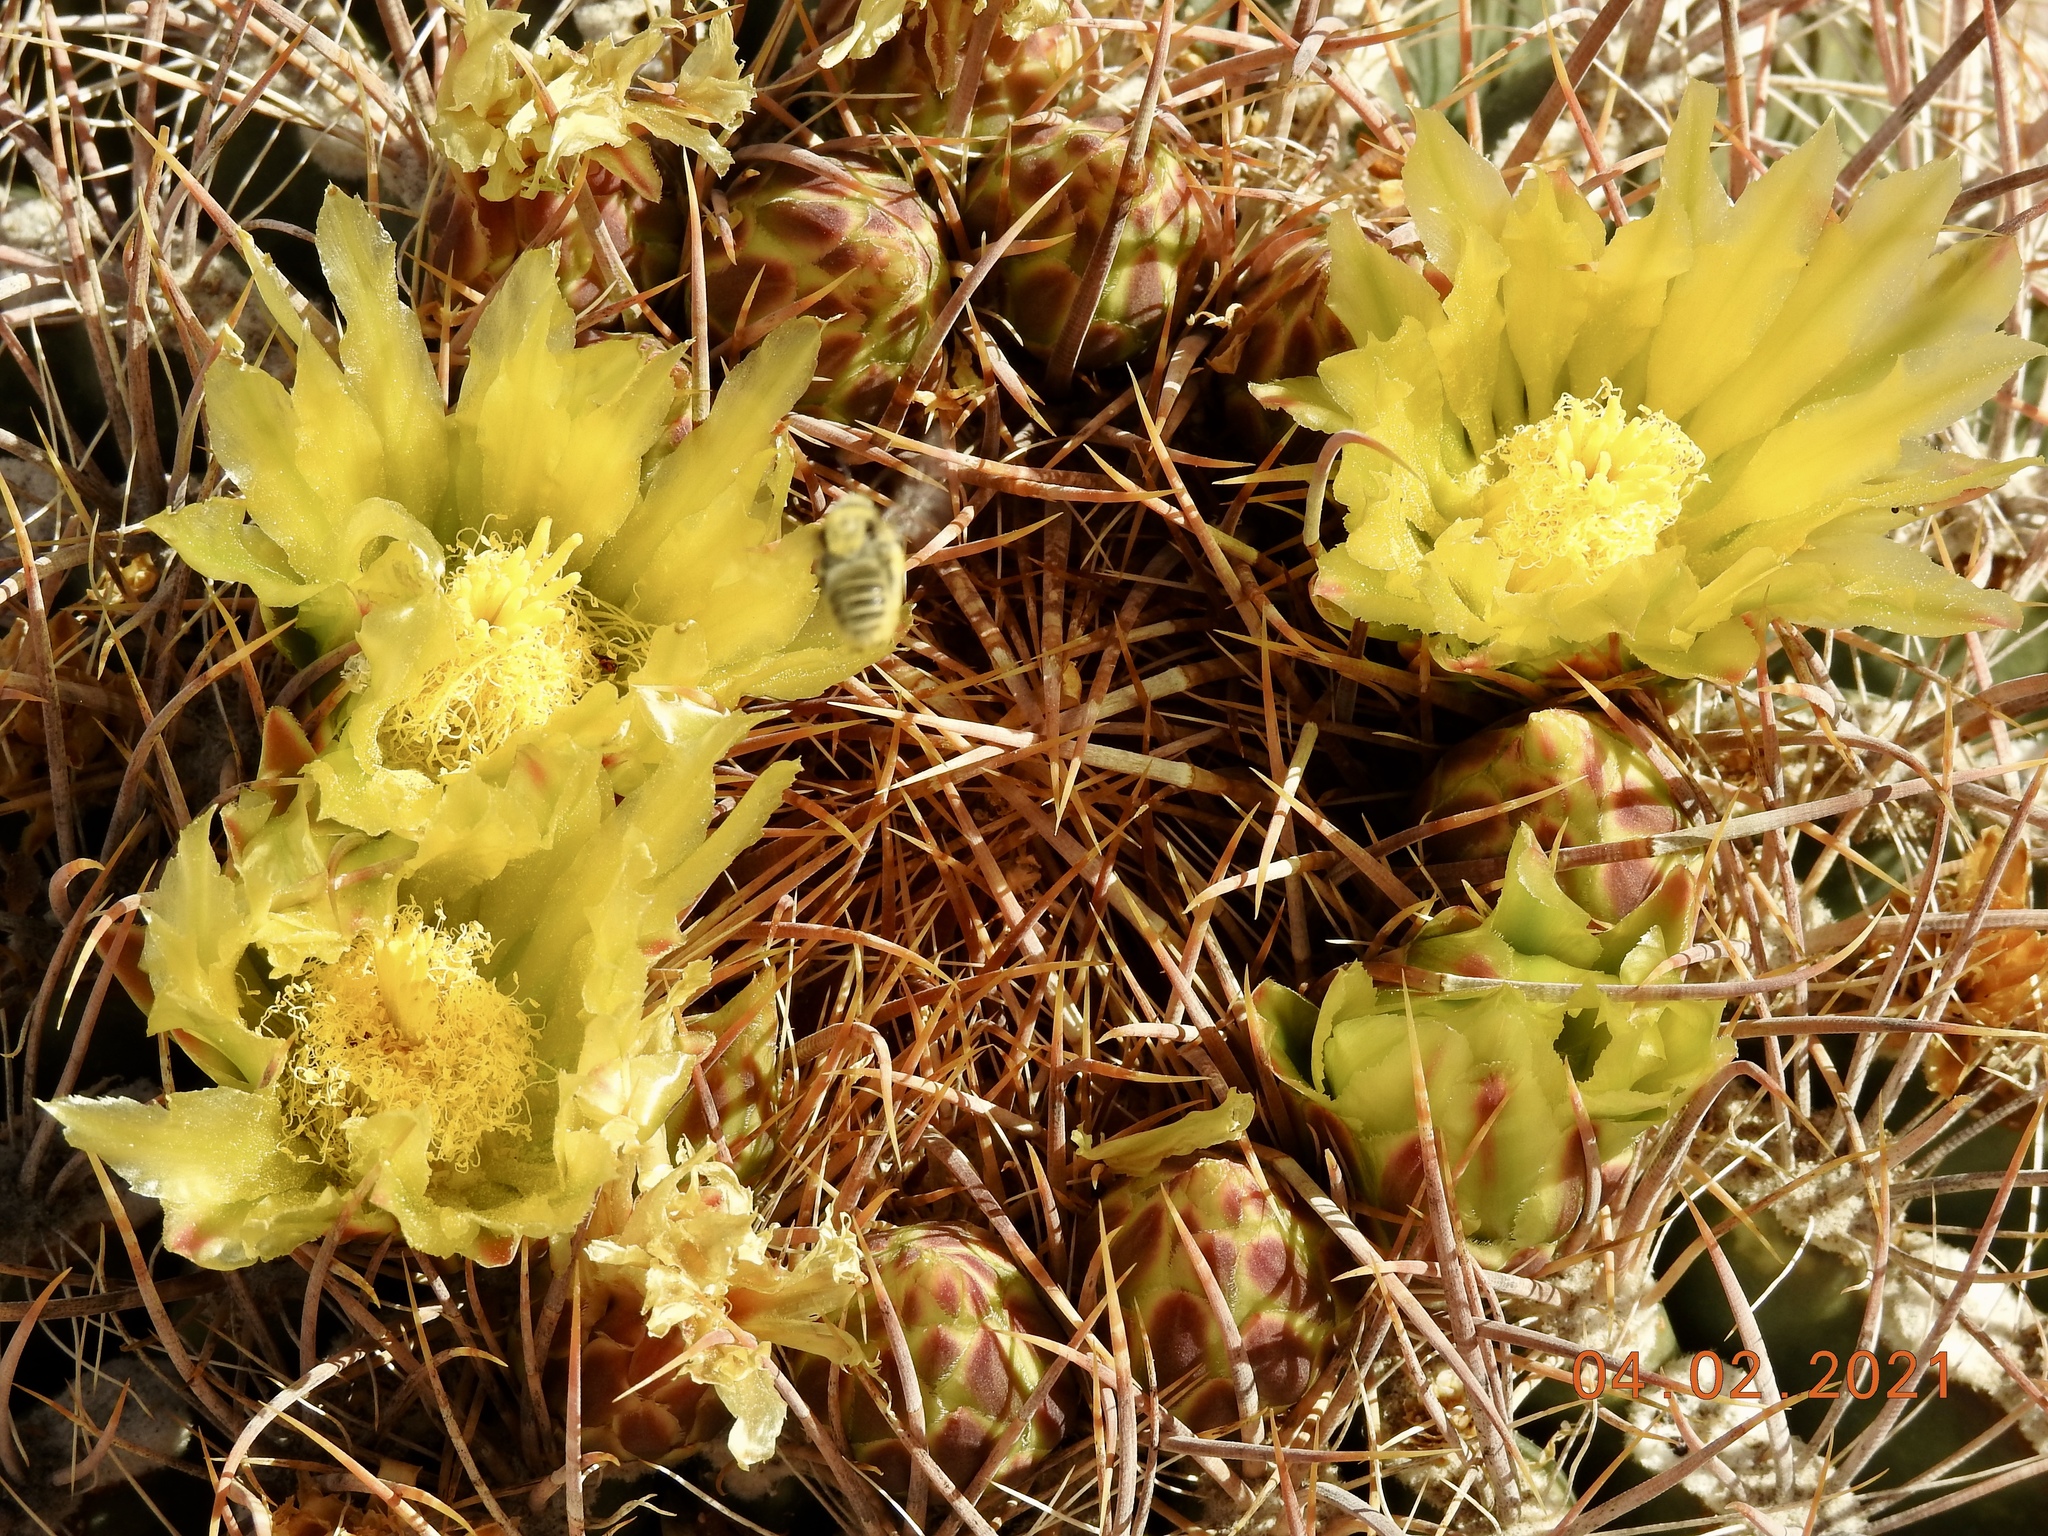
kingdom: Plantae
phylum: Tracheophyta
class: Magnoliopsida
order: Caryophyllales
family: Cactaceae
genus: Ferocactus
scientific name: Ferocactus cylindraceus
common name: California barrel cactus
